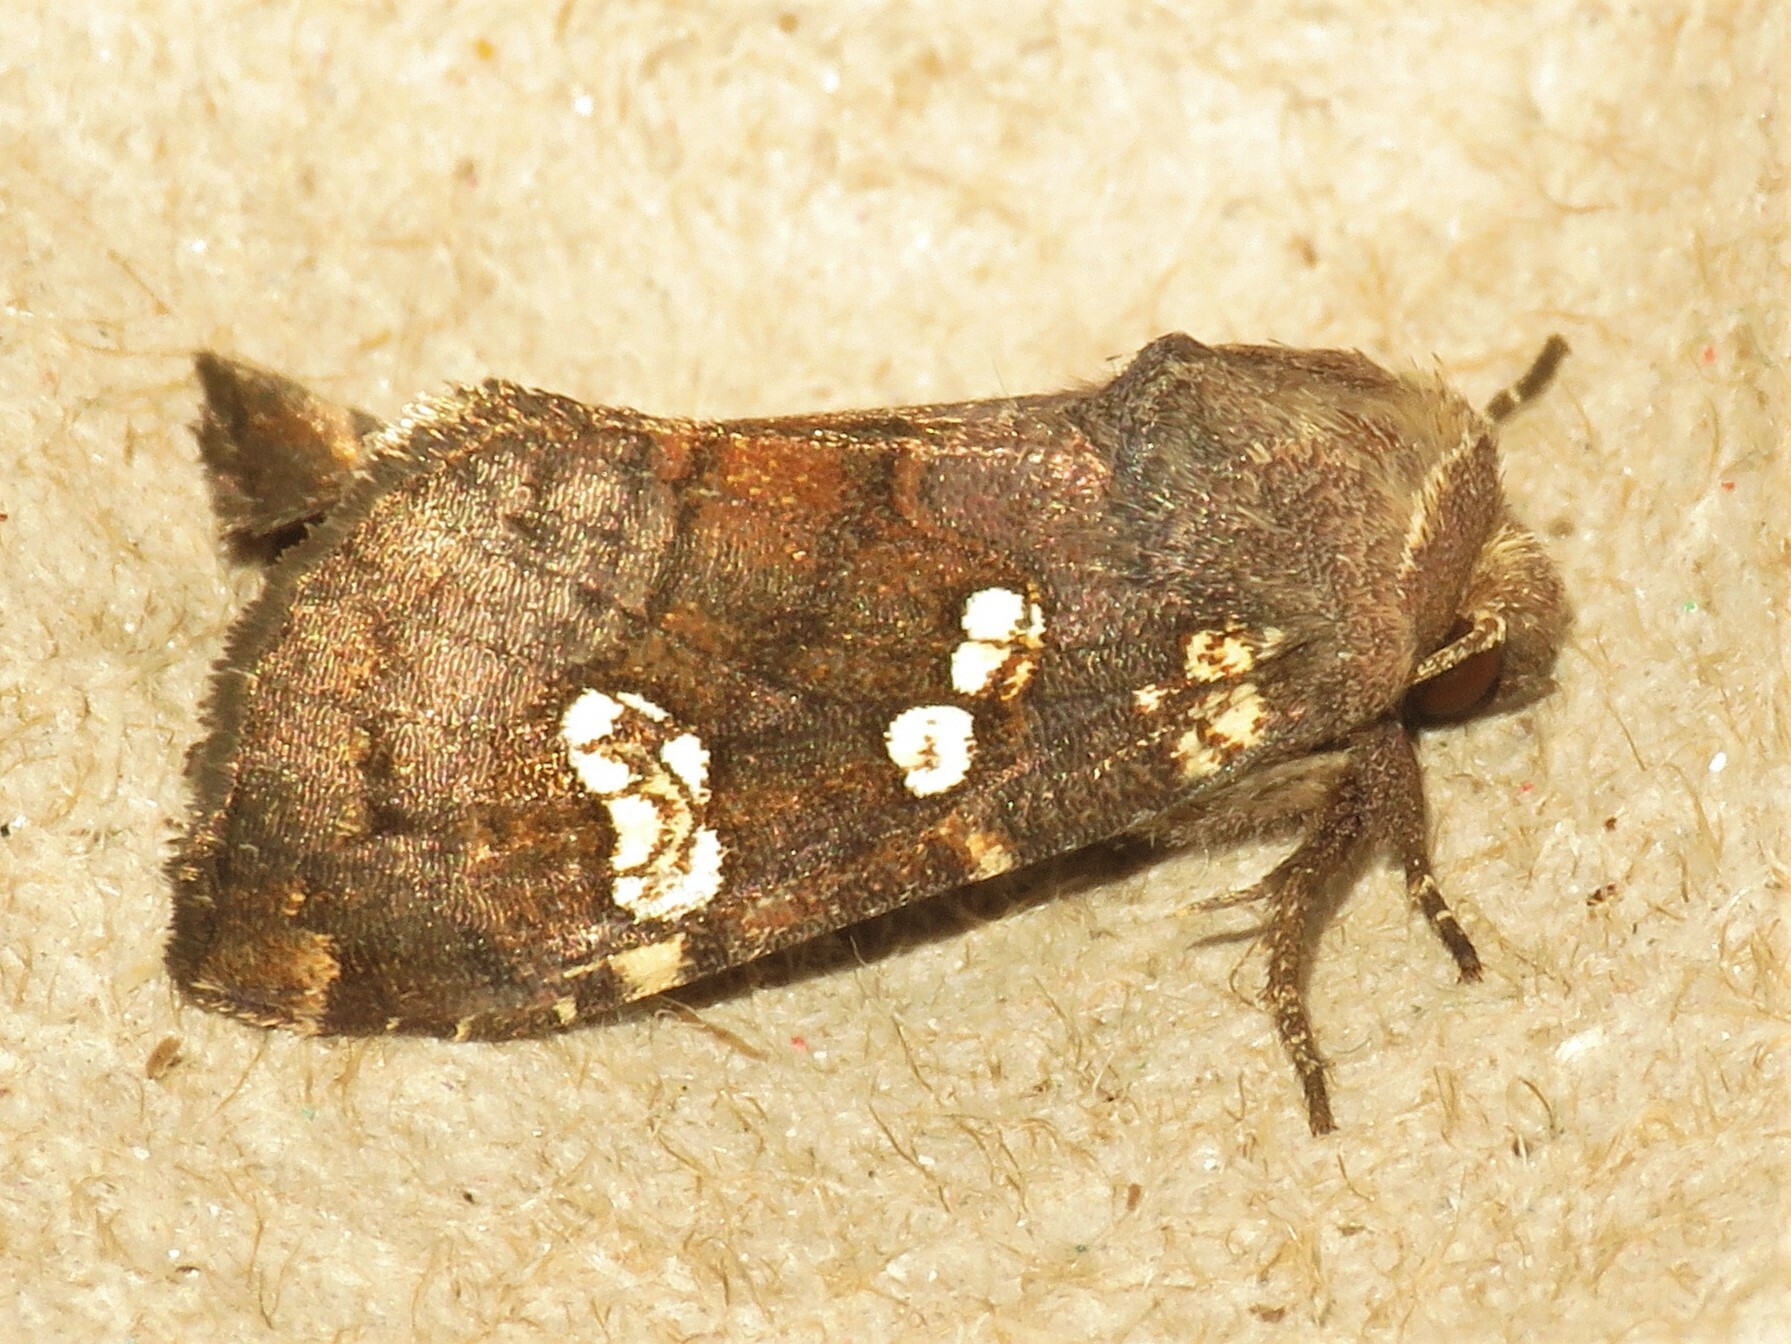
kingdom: Animalia
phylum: Arthropoda
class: Insecta
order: Lepidoptera
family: Noctuidae
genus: Papaipema
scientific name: Papaipema unimoda
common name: Meadow rue borer moth
